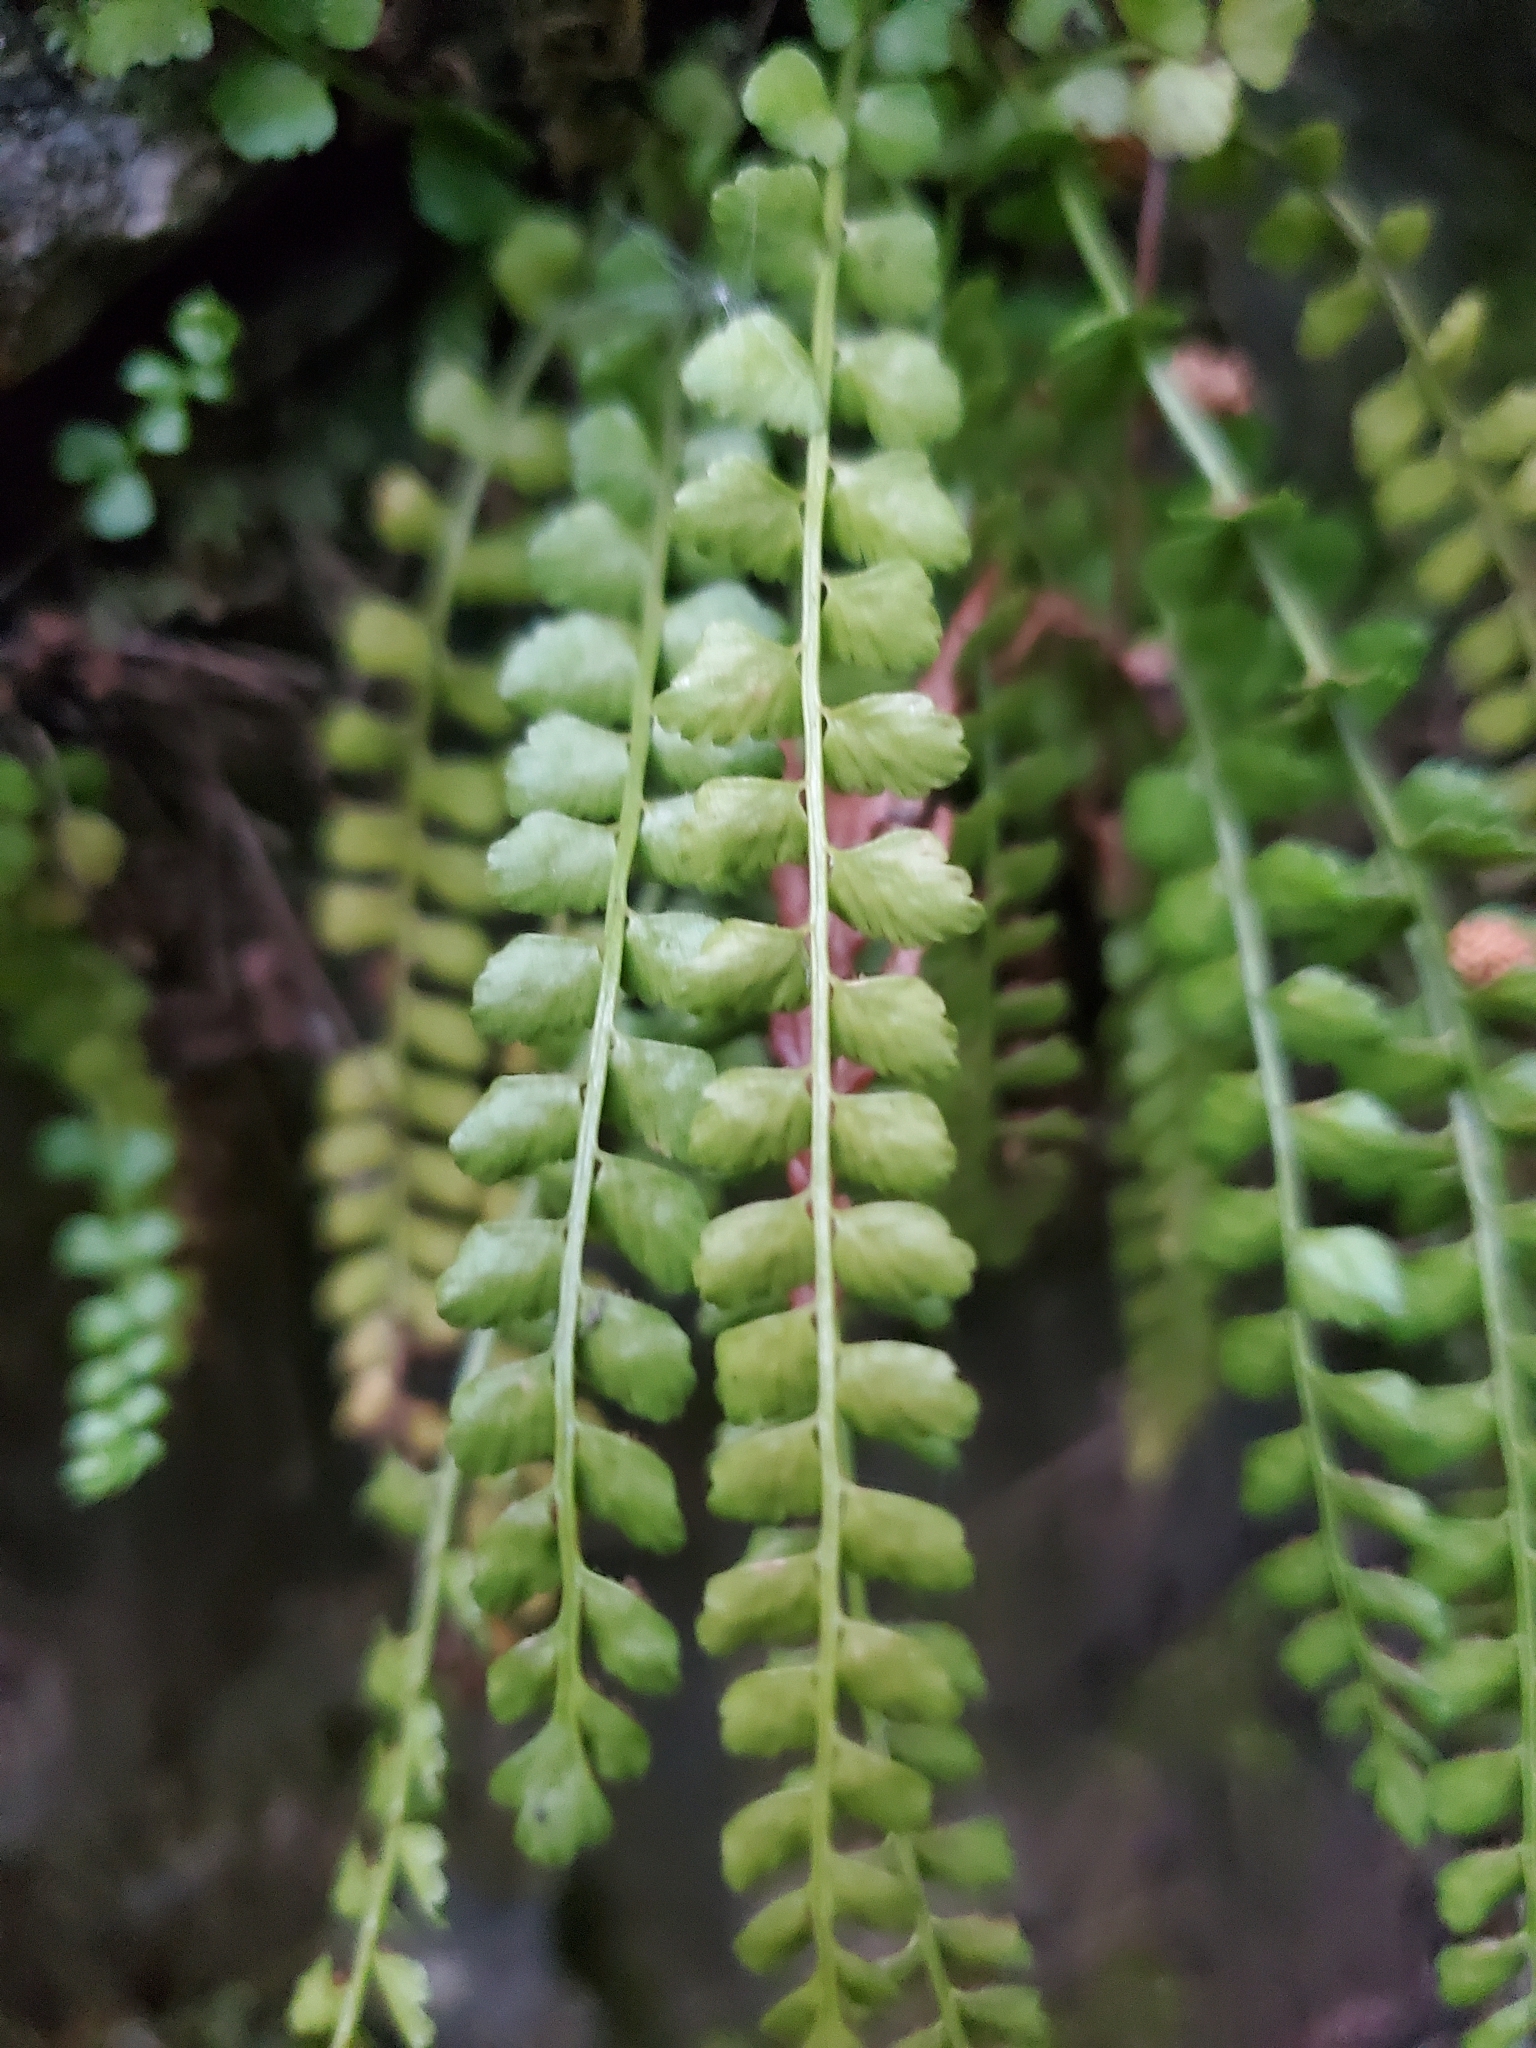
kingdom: Plantae
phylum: Tracheophyta
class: Polypodiopsida
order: Polypodiales
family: Aspleniaceae
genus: Asplenium
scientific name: Asplenium viride
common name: Green spleenwort
